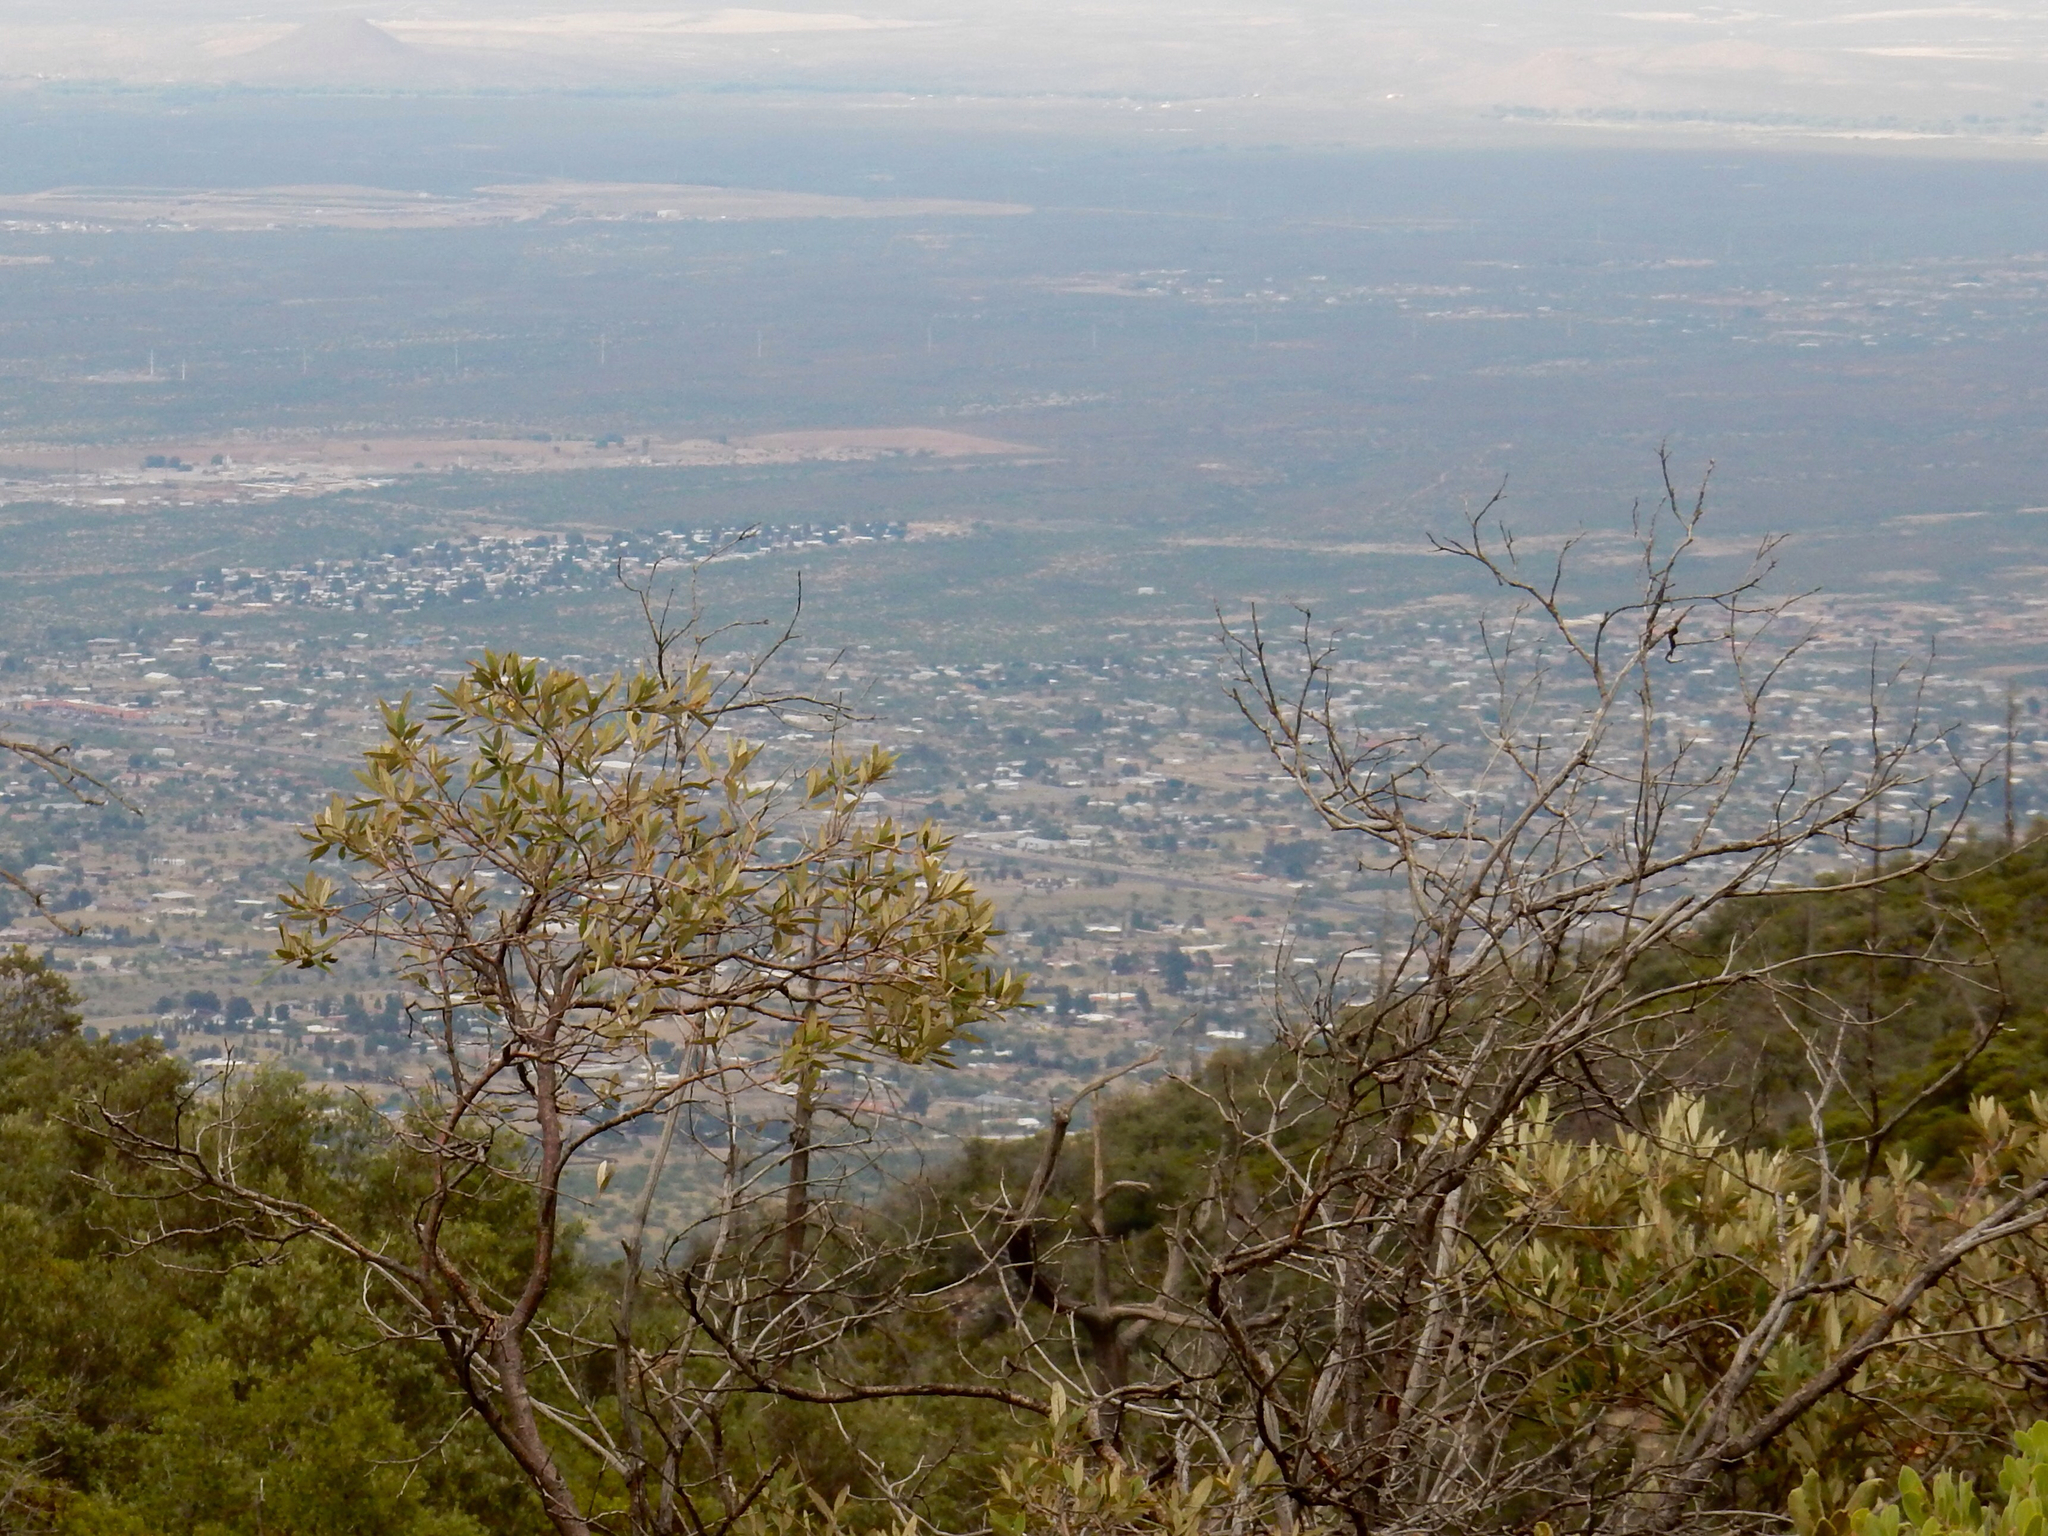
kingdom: Plantae
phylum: Tracheophyta
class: Magnoliopsida
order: Ericales
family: Ericaceae
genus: Arbutus
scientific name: Arbutus arizonica
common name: Arizona madrone
